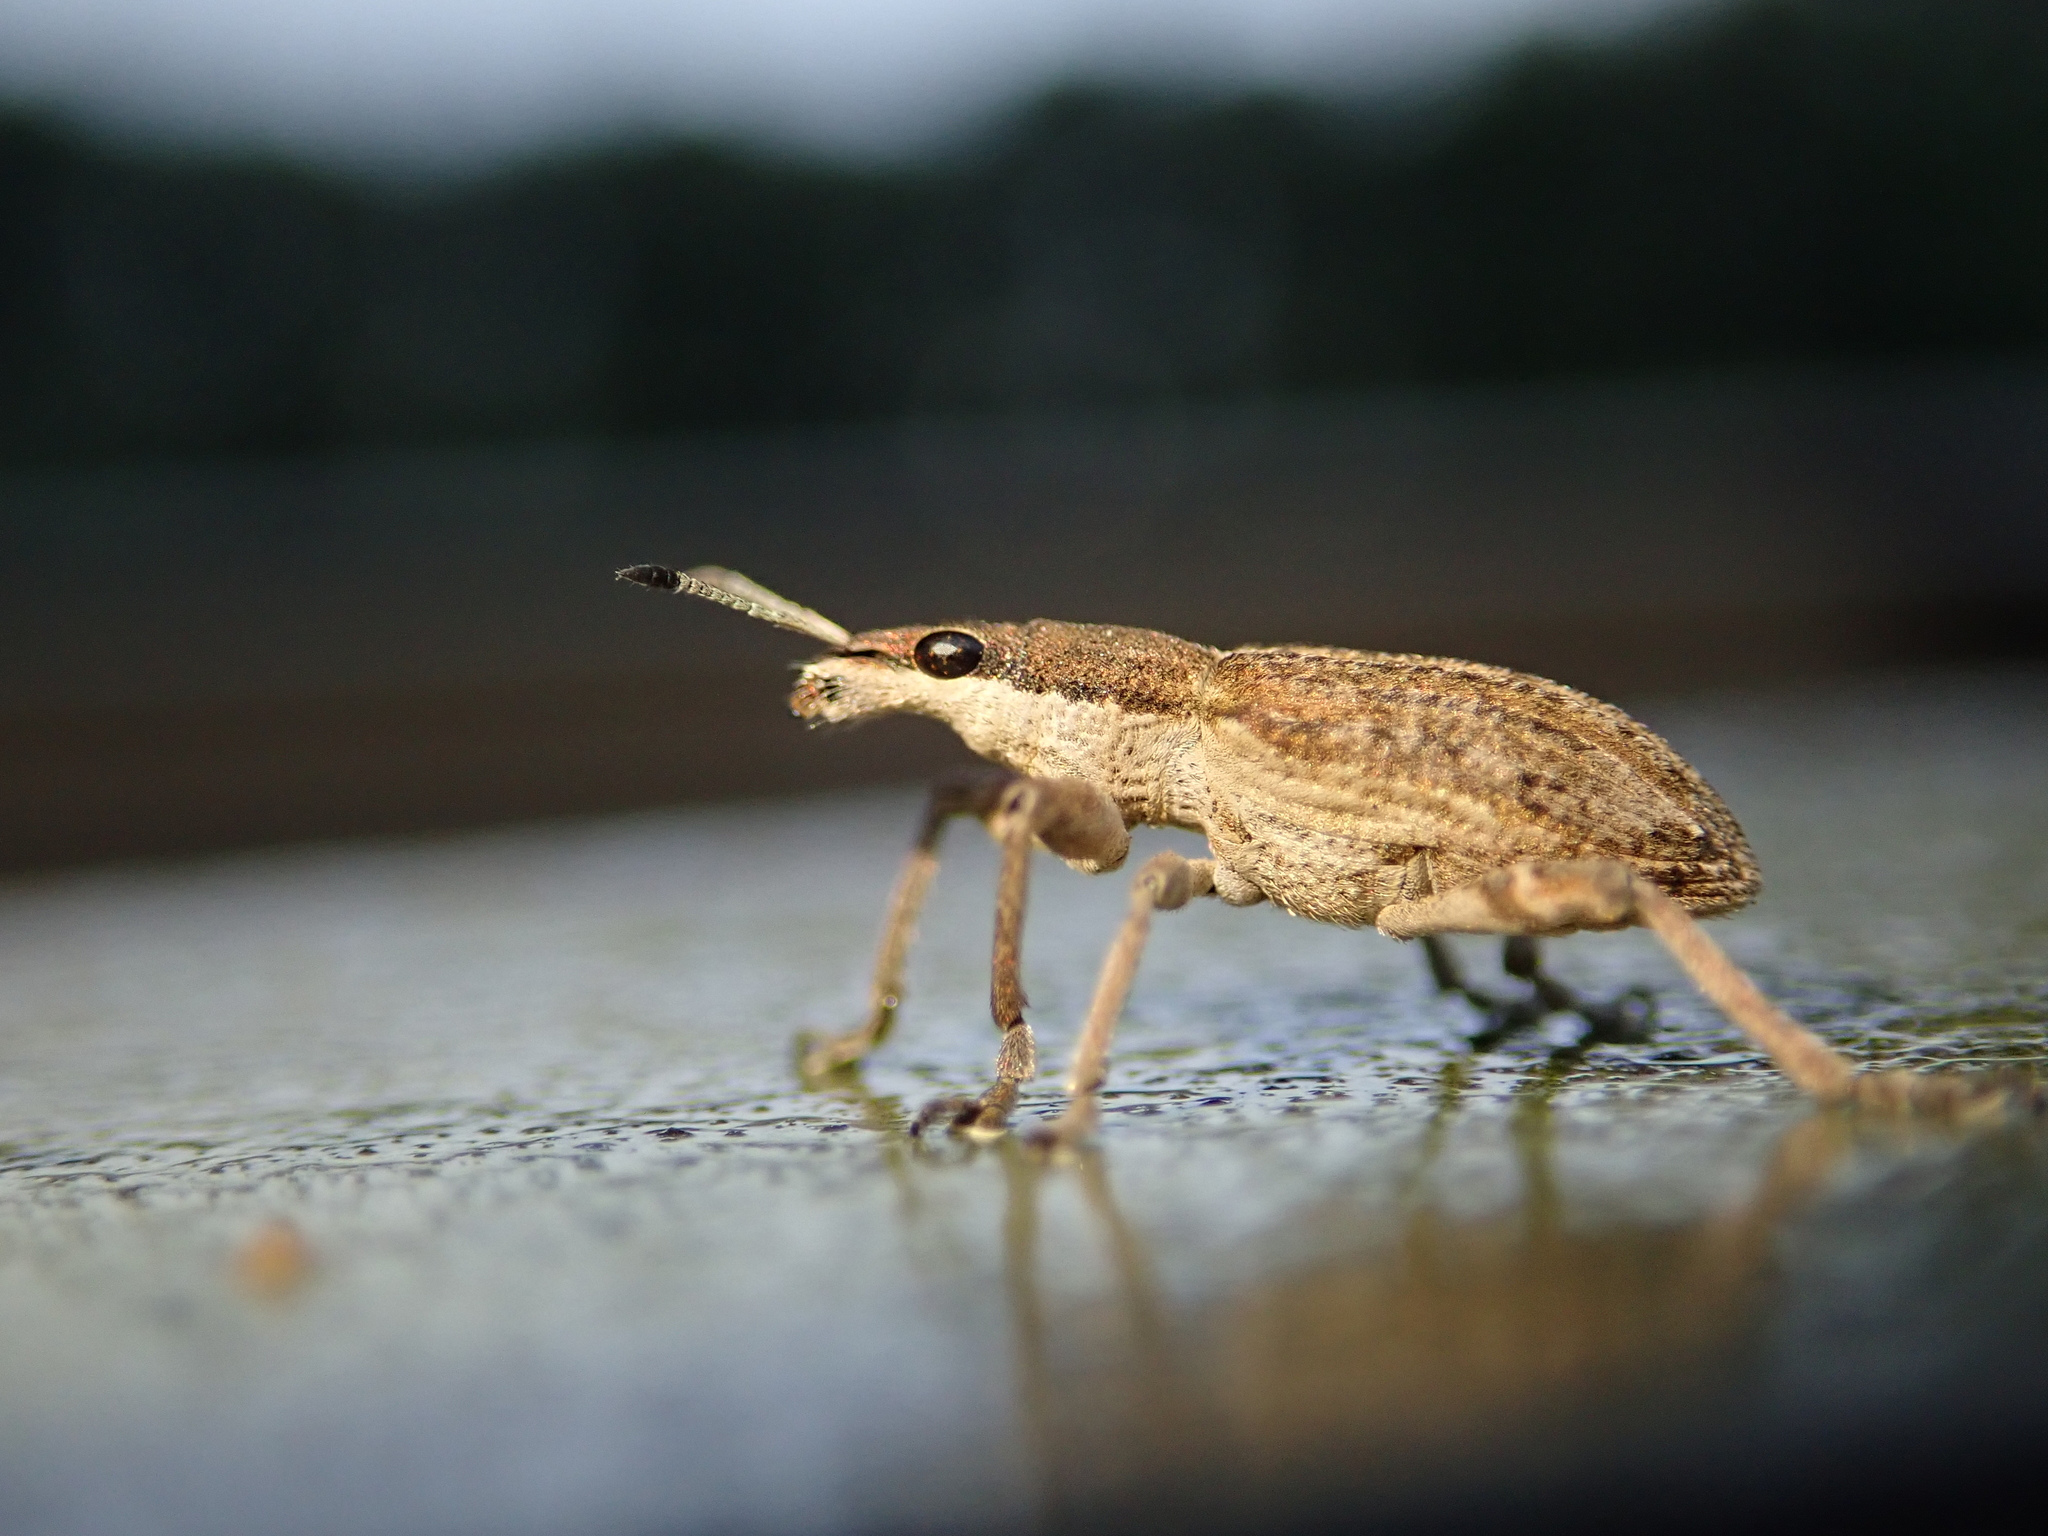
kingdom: Animalia
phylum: Arthropoda
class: Insecta
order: Coleoptera
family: Curculionidae
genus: Charagmus
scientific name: Charagmus gressorius
